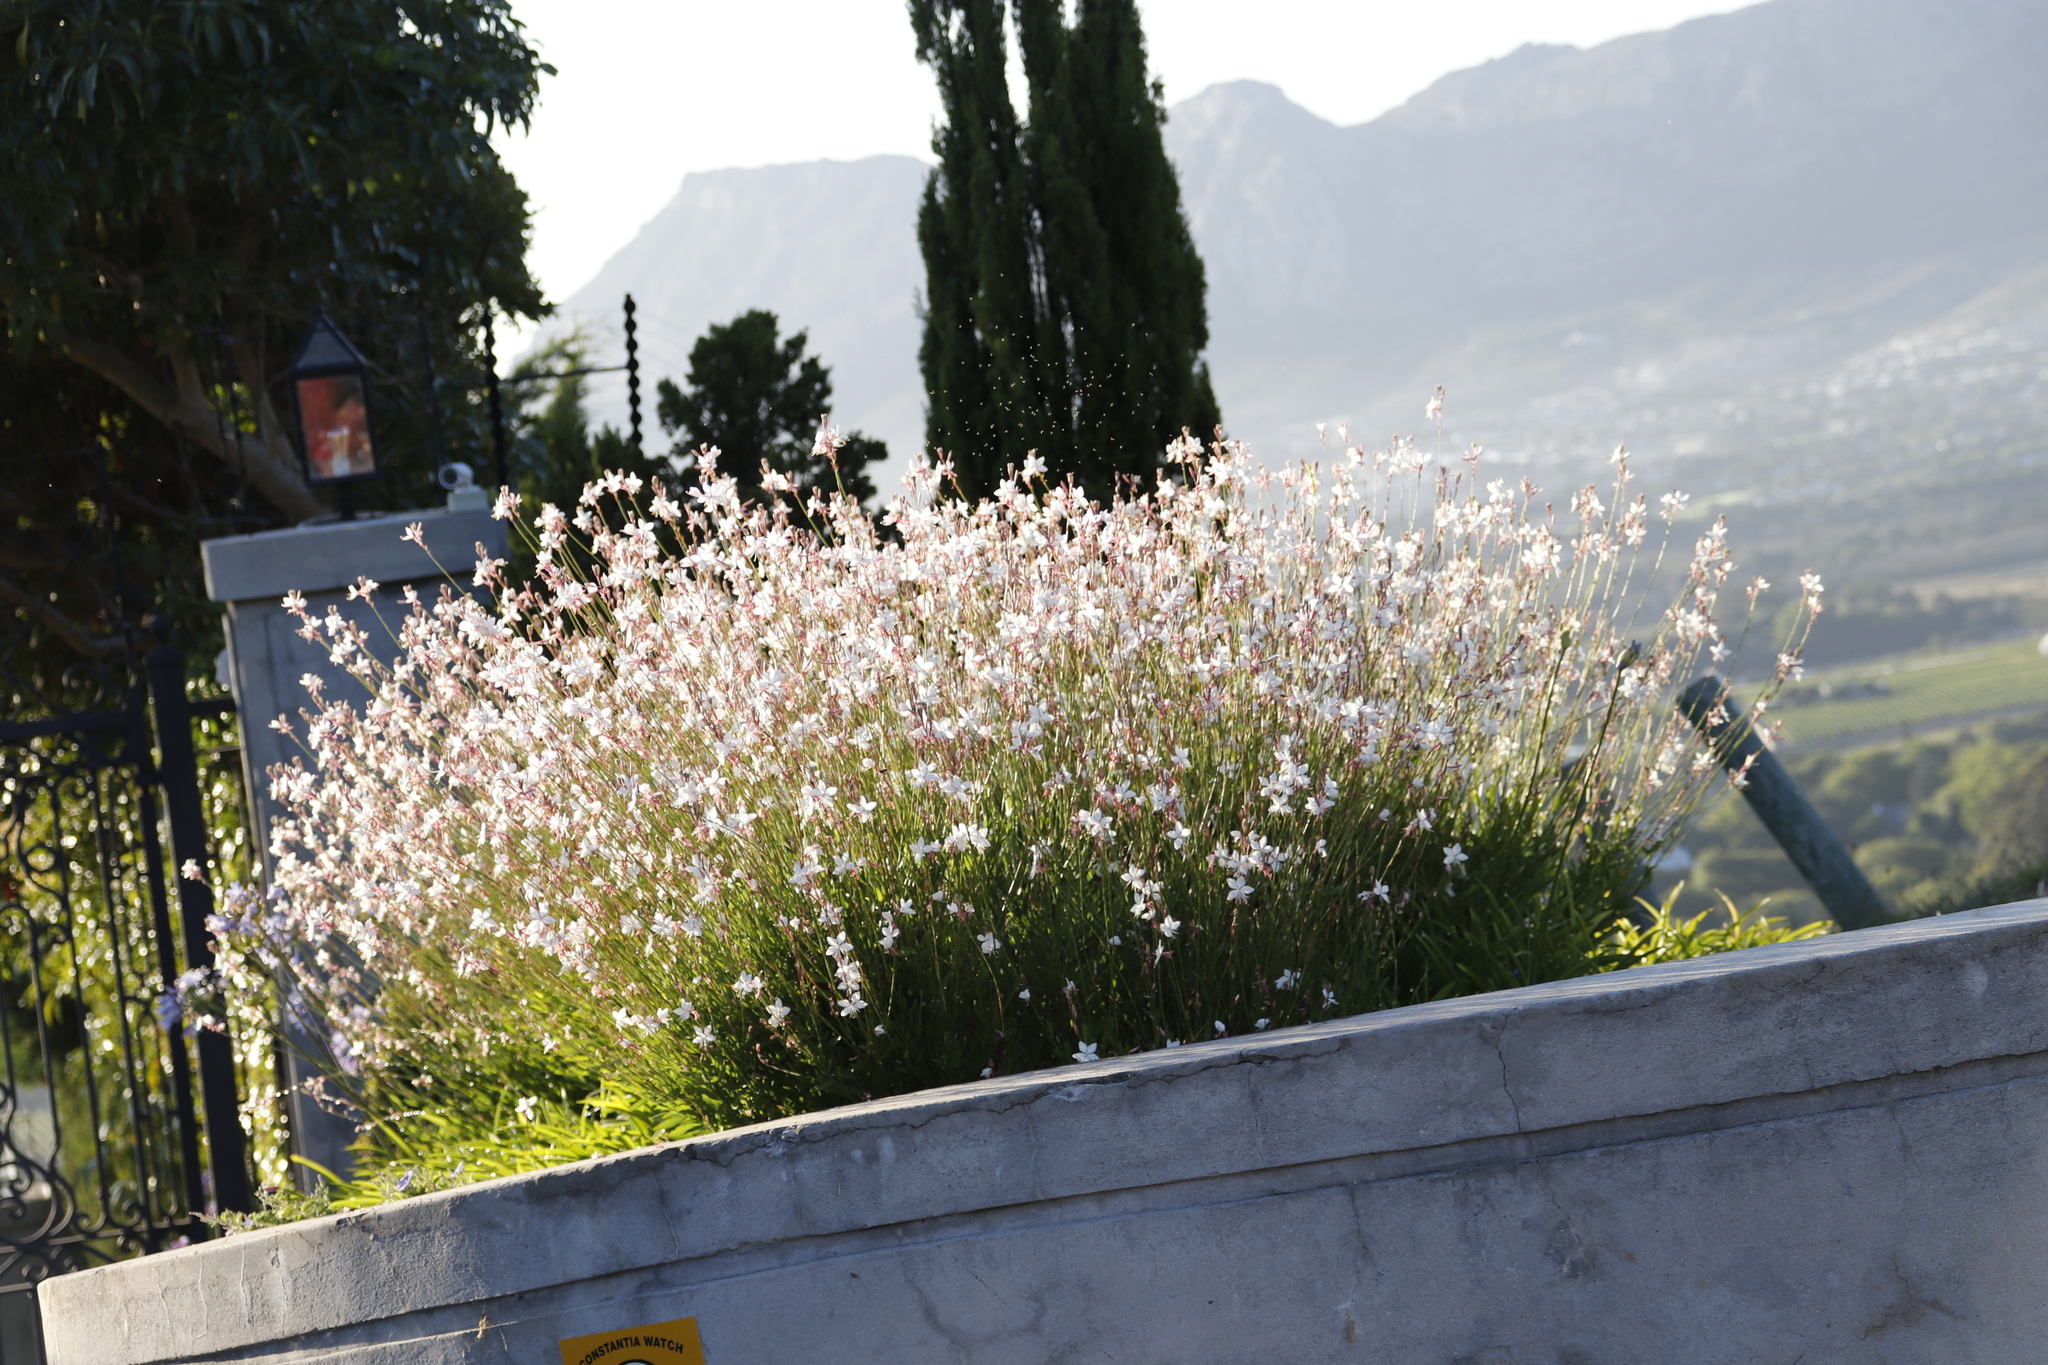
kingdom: Plantae
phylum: Tracheophyta
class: Magnoliopsida
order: Myrtales
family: Onagraceae
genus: Oenothera
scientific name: Oenothera lindheimeri
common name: Lindheimer's beeblossom
